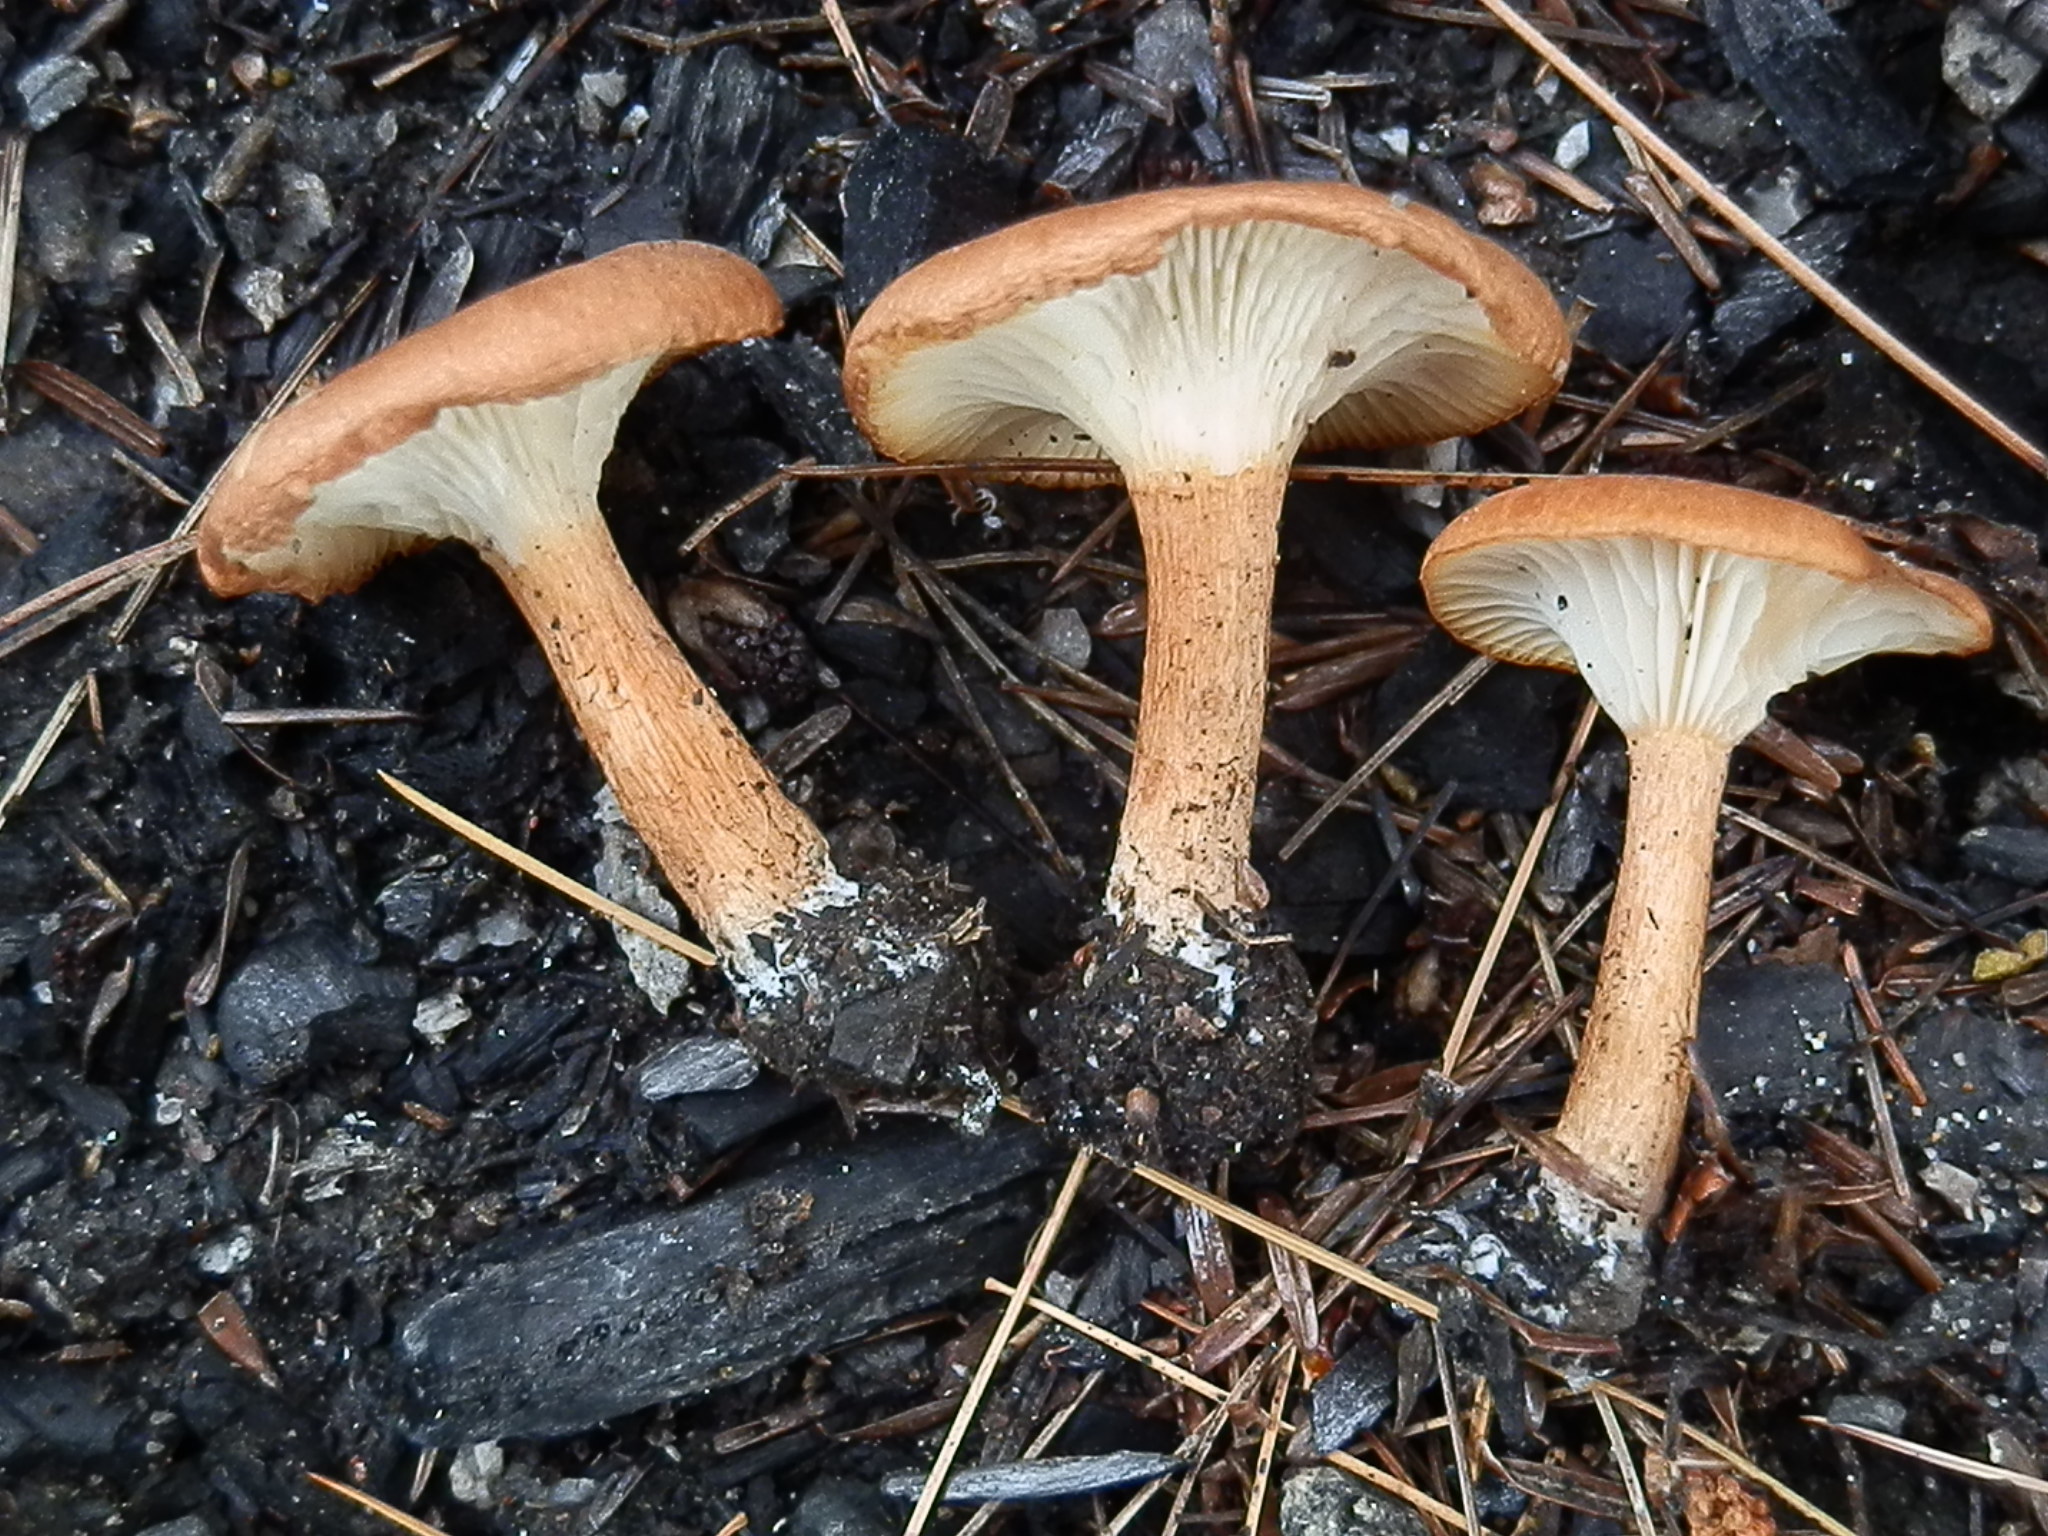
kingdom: Fungi
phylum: Basidiomycota
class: Agaricomycetes
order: Agaricales
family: Pseudoclitocybaceae
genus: Bonomyces
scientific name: Bonomyces sinopicus
